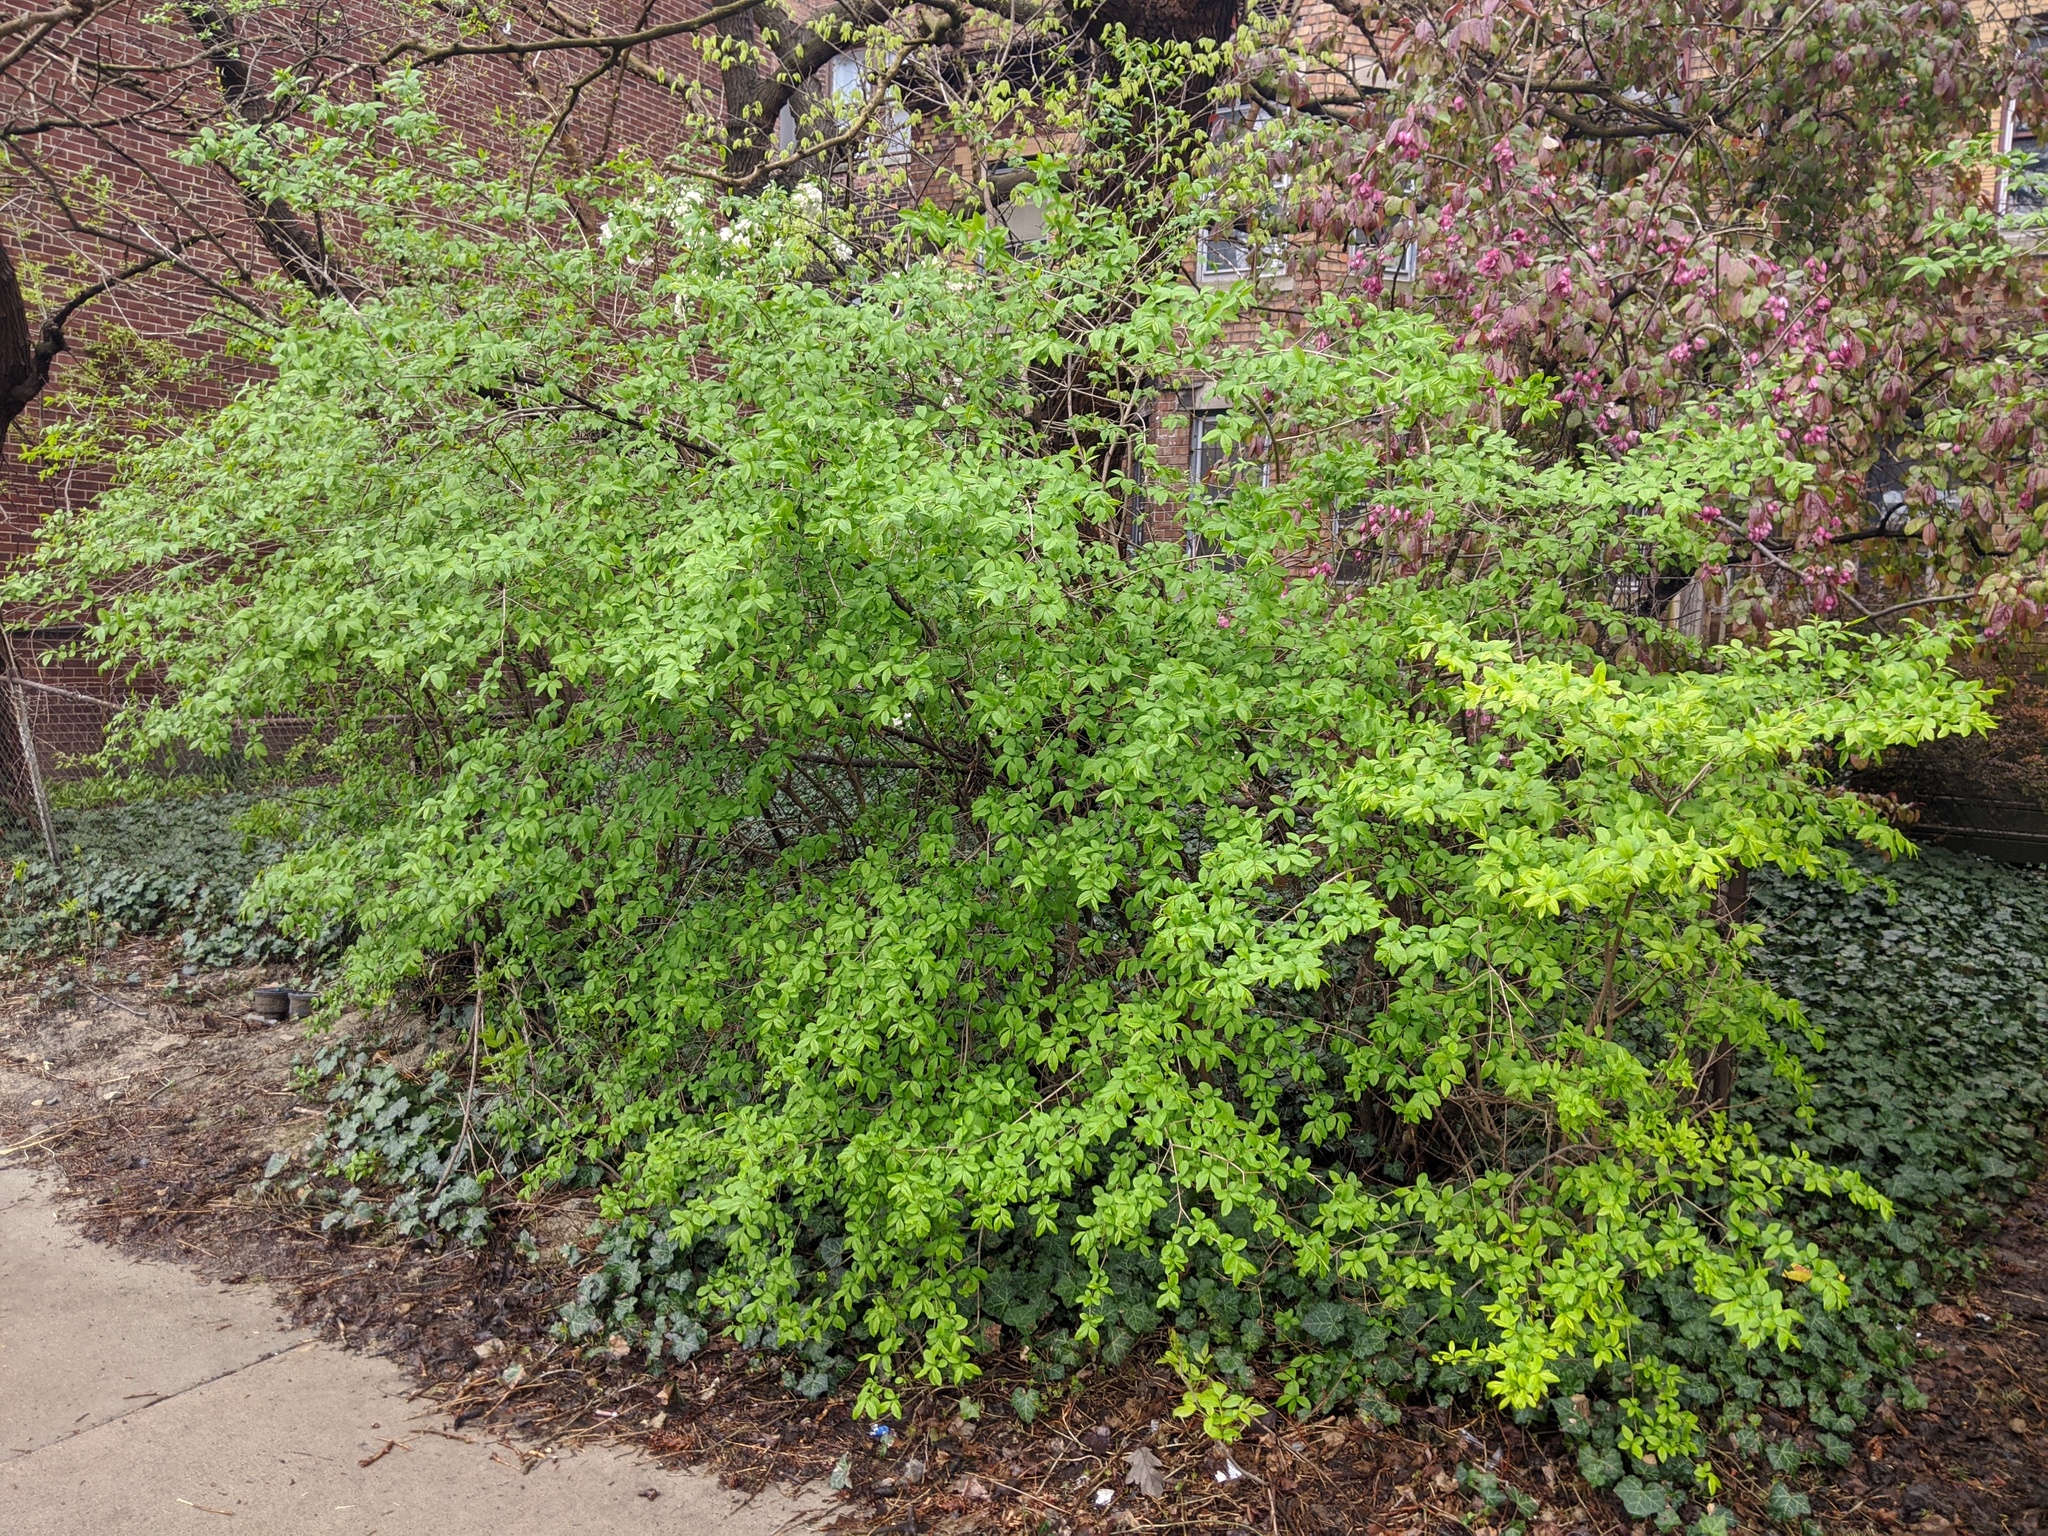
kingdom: Plantae
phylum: Tracheophyta
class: Magnoliopsida
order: Lamiales
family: Oleaceae
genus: Ligustrum
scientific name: Ligustrum obtusifolium
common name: Border privet
